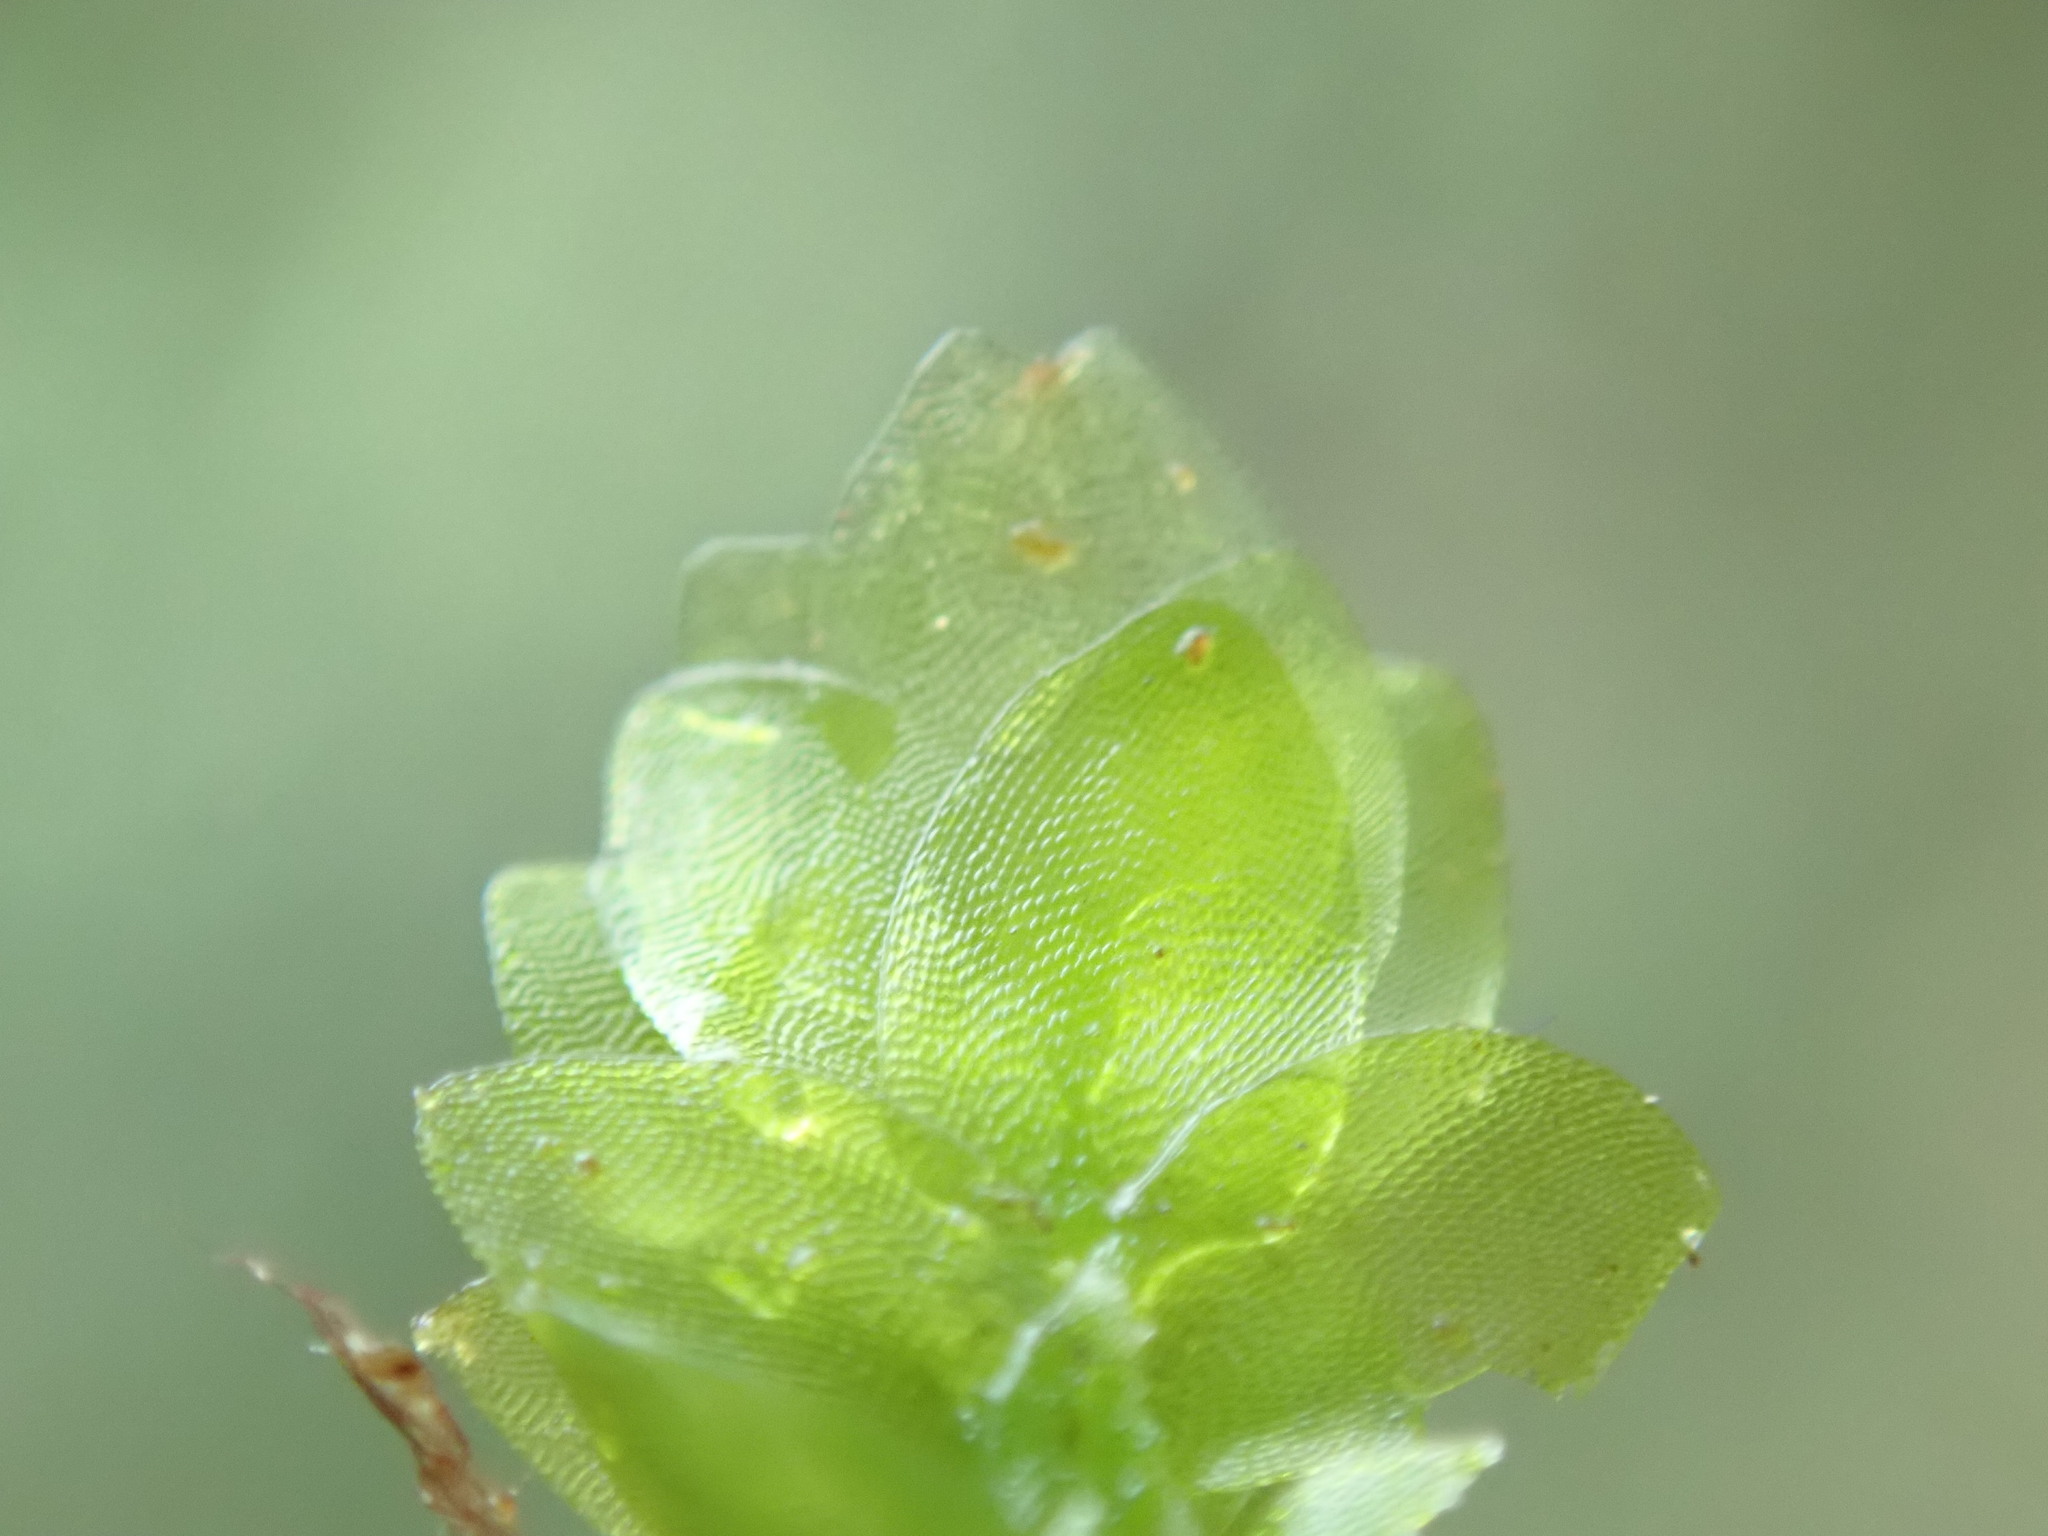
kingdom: Plantae
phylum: Bryophyta
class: Bryopsida
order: Hookeriales
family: Hookeriaceae
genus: Hookeria
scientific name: Hookeria lucens
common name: Shining hookeria
